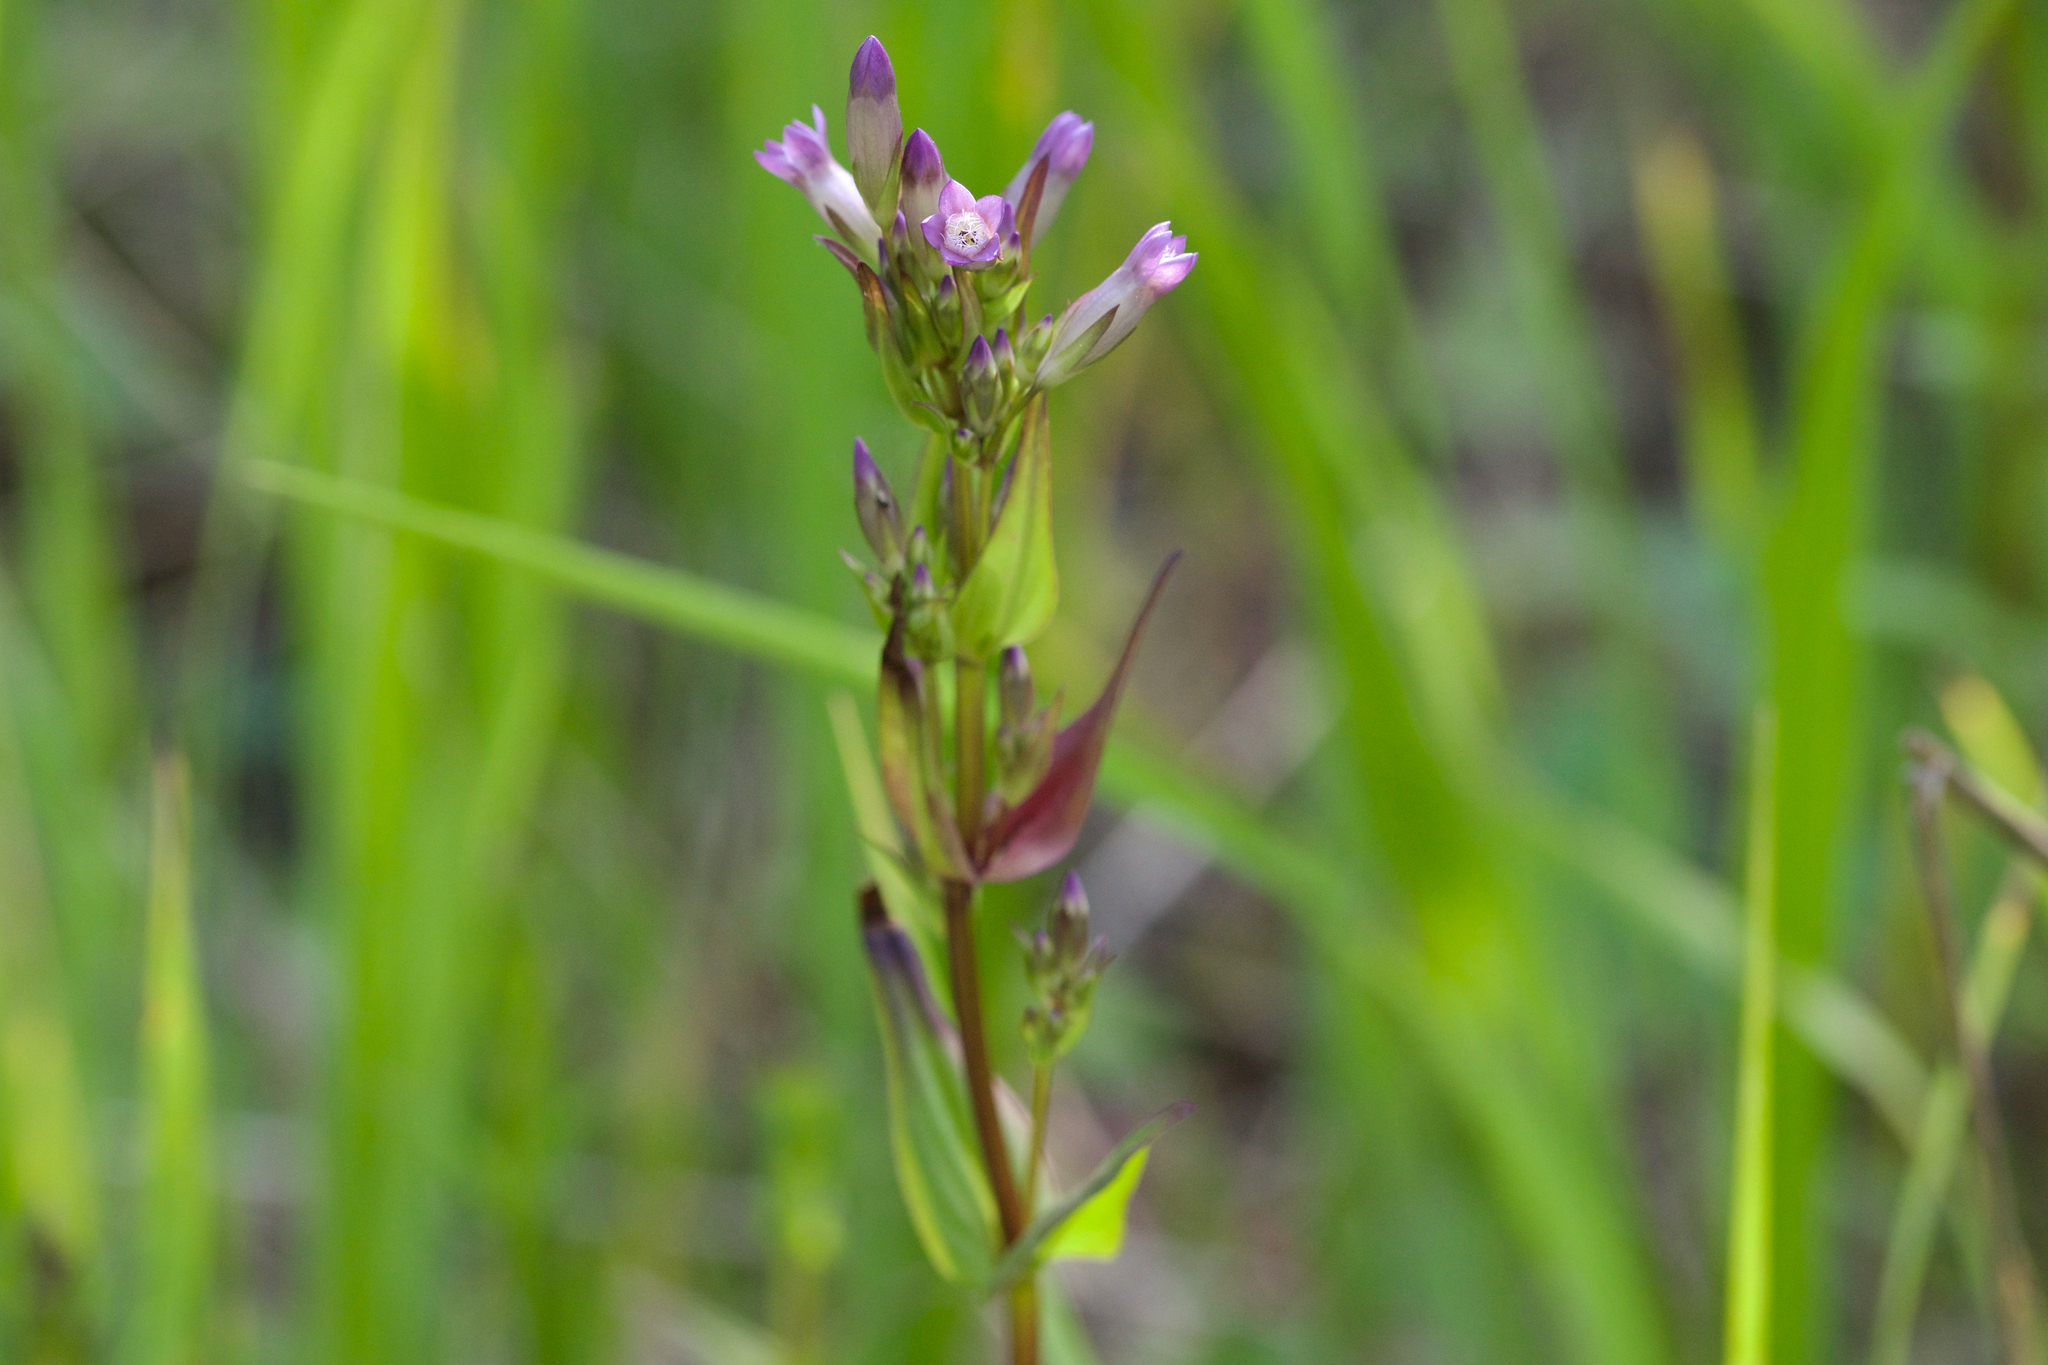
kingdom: Plantae
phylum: Tracheophyta
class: Magnoliopsida
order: Gentianales
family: Gentianaceae
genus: Gentianella
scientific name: Gentianella amarella
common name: Autumn gentian
